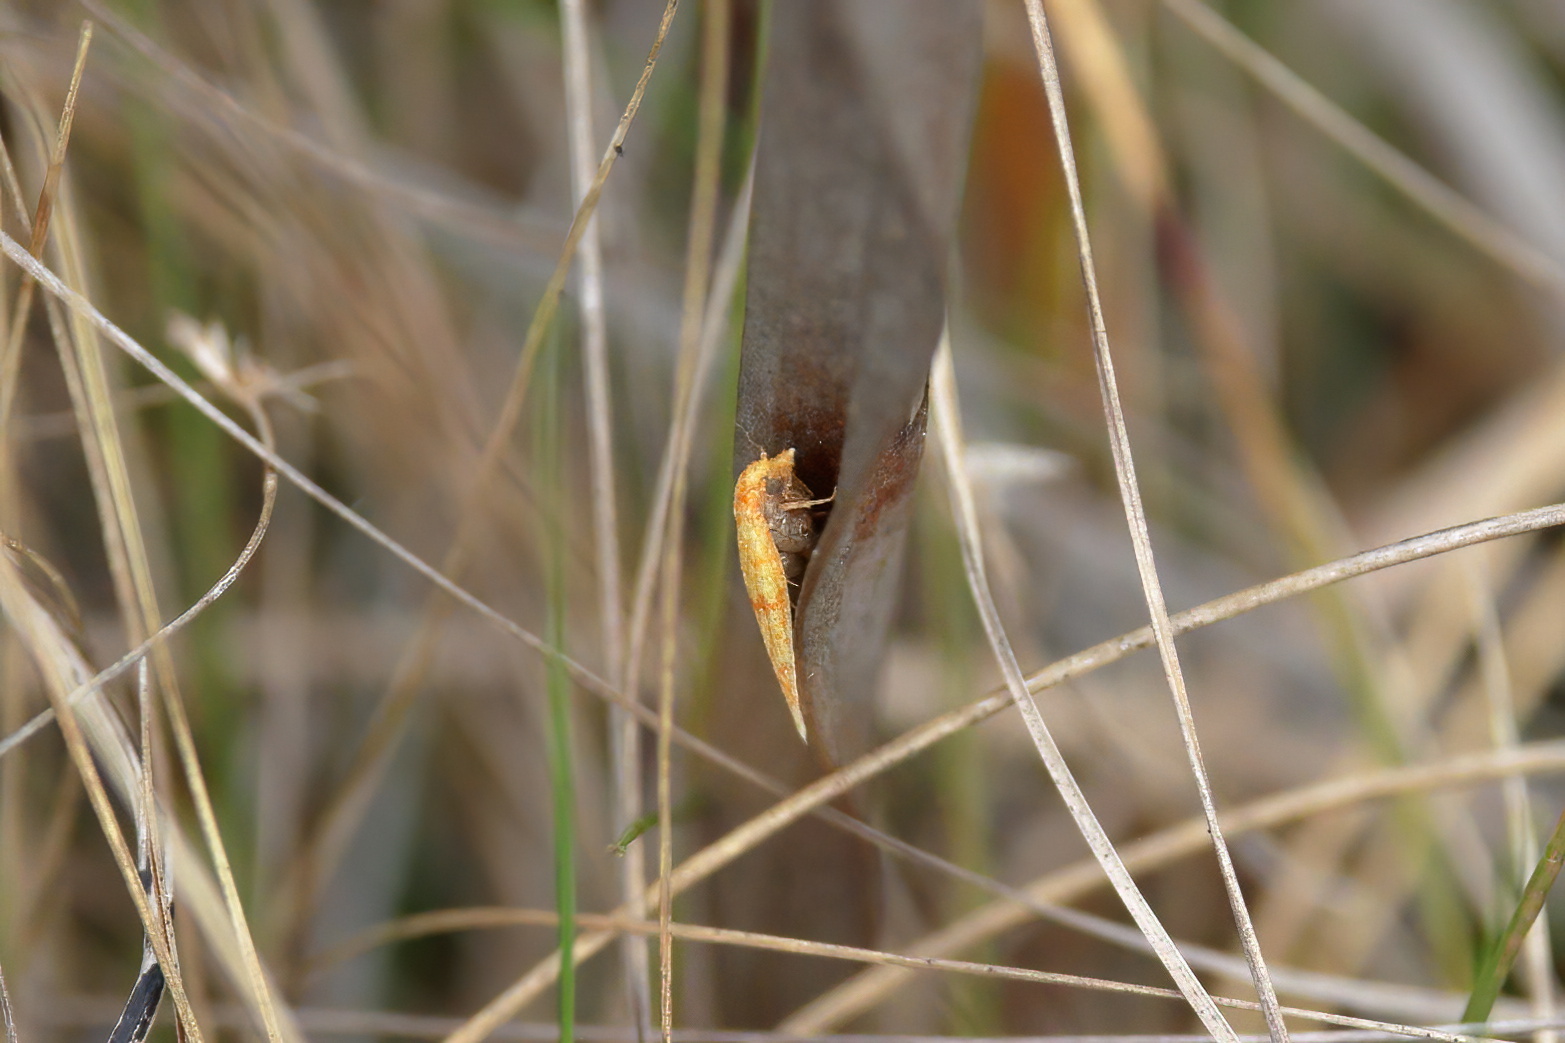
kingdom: Animalia
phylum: Arthropoda
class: Insecta
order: Lepidoptera
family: Tortricidae
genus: Sparganothis
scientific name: Sparganothis sulfureana
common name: Sparganothis fruitworm moth
